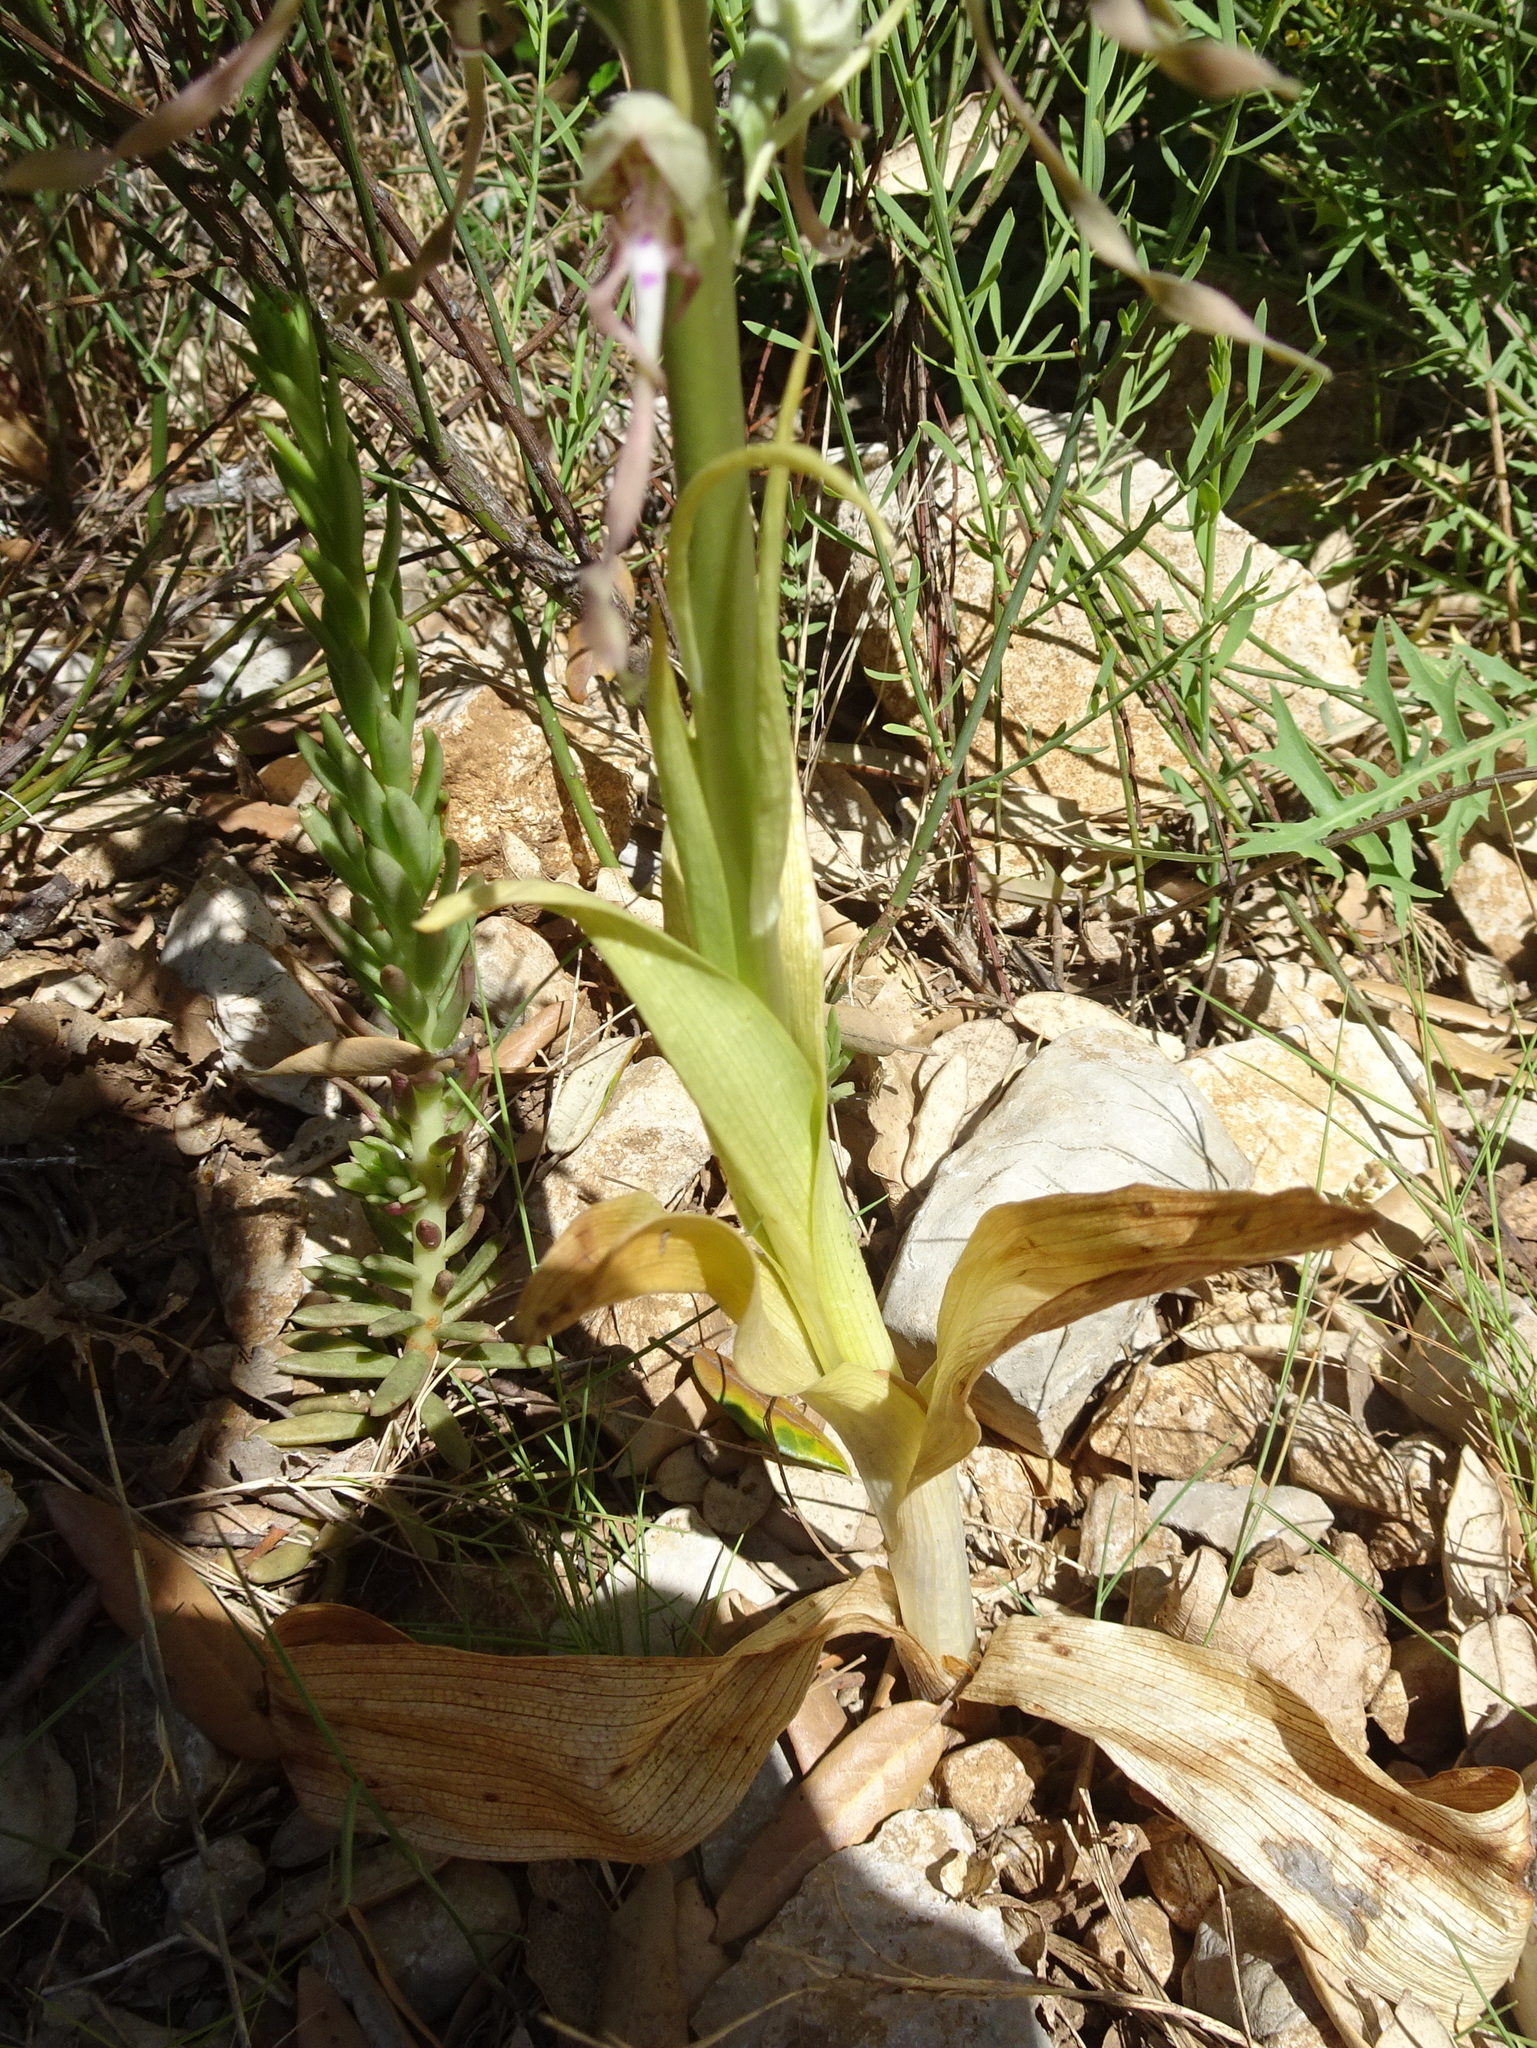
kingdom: Plantae
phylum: Tracheophyta
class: Liliopsida
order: Asparagales
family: Orchidaceae
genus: Himantoglossum
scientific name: Himantoglossum hircinum
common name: Lizard orchid
